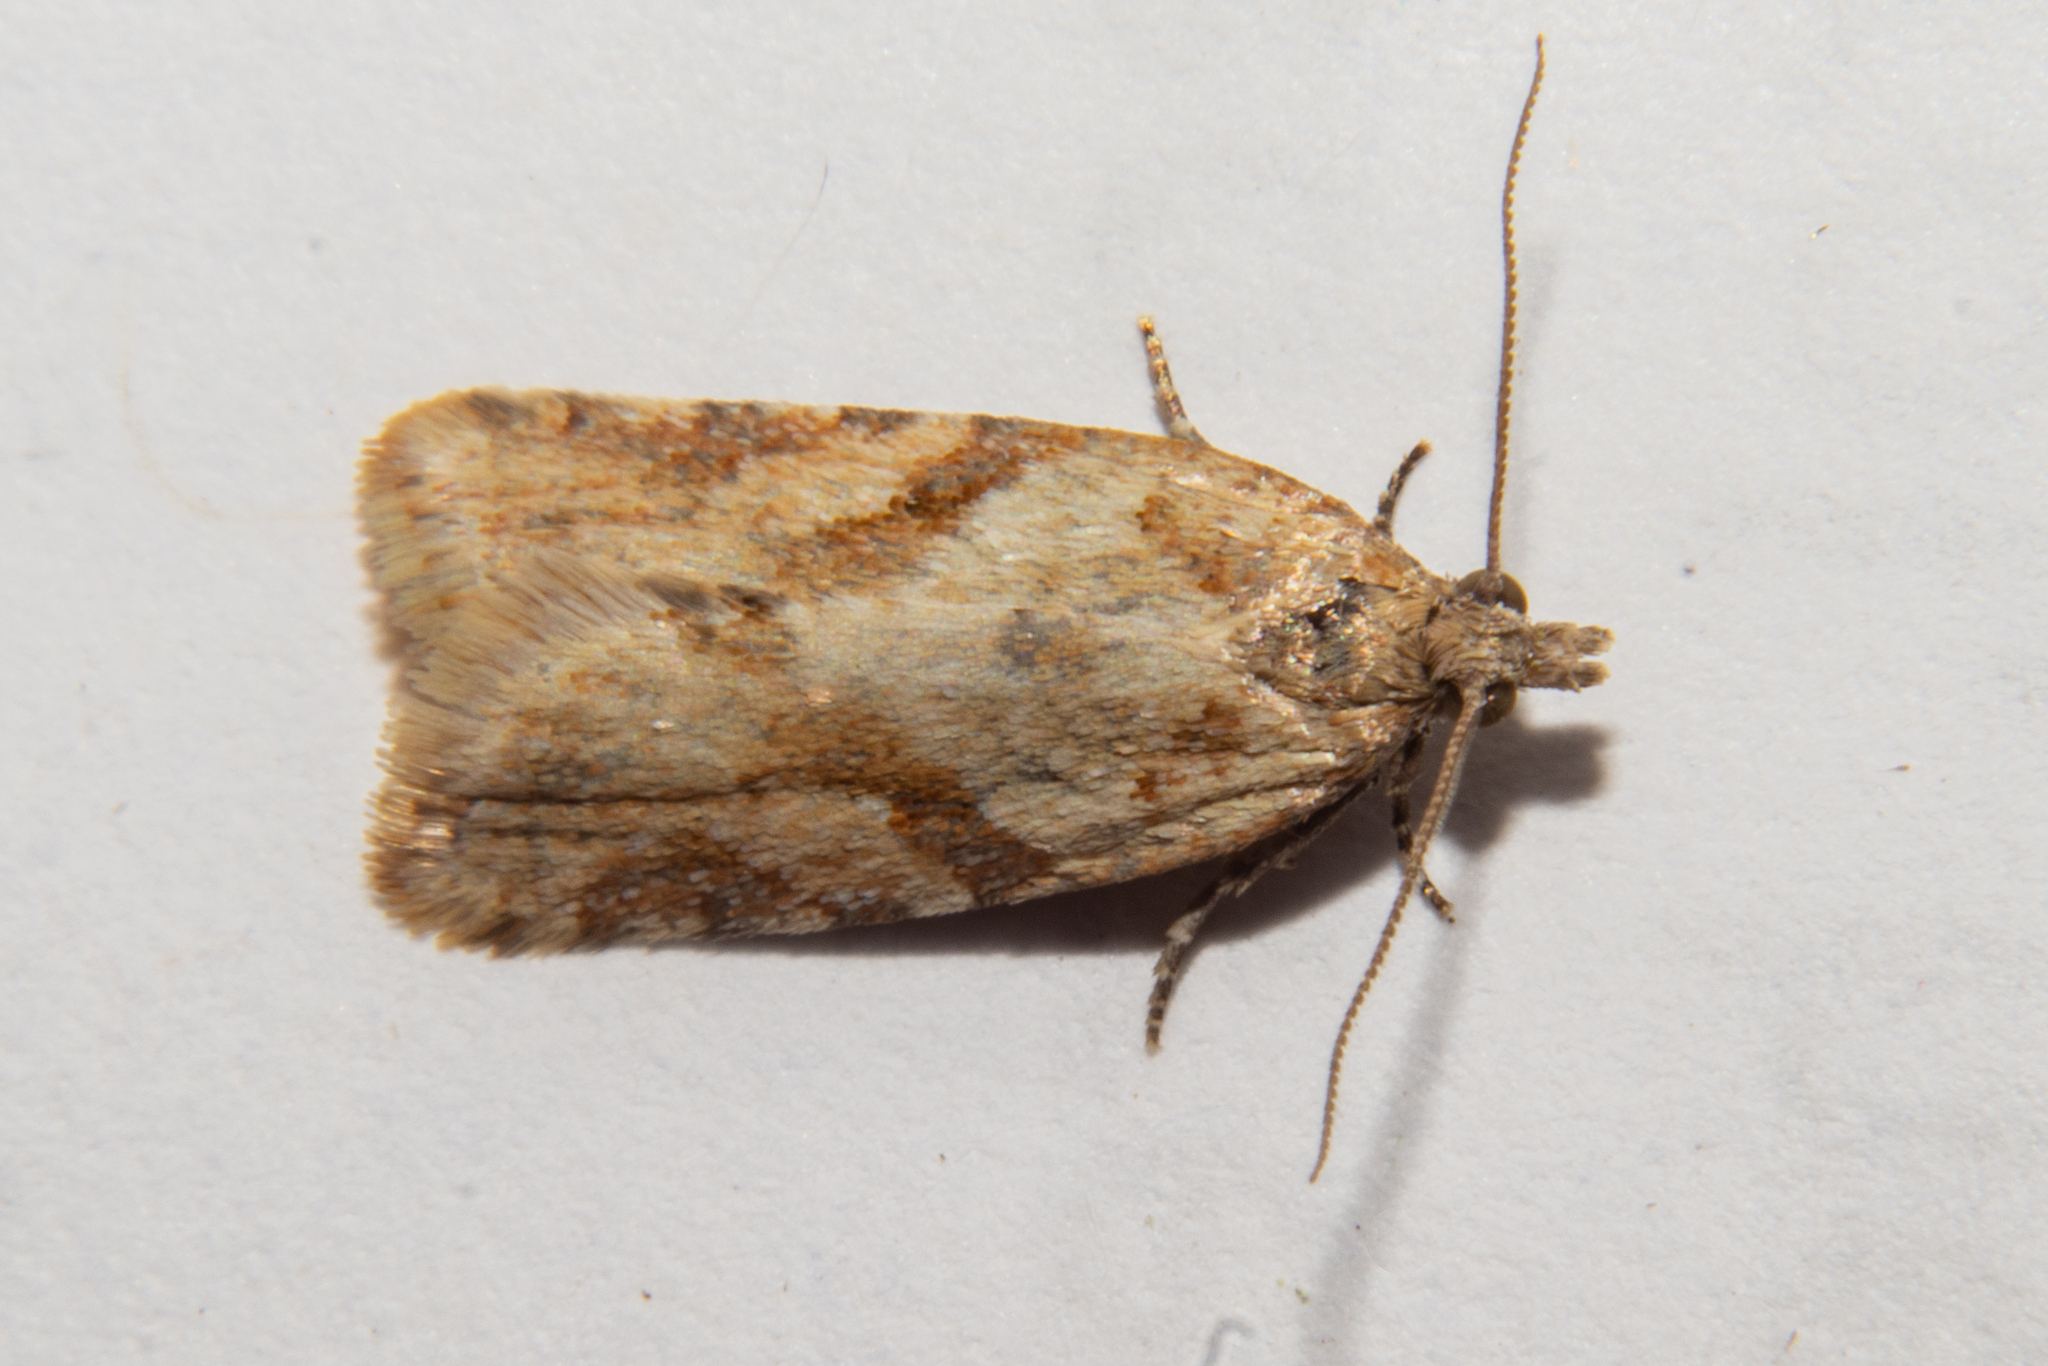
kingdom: Animalia
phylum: Arthropoda
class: Insecta
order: Lepidoptera
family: Tortricidae
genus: Capua
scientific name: Capua semiferana
